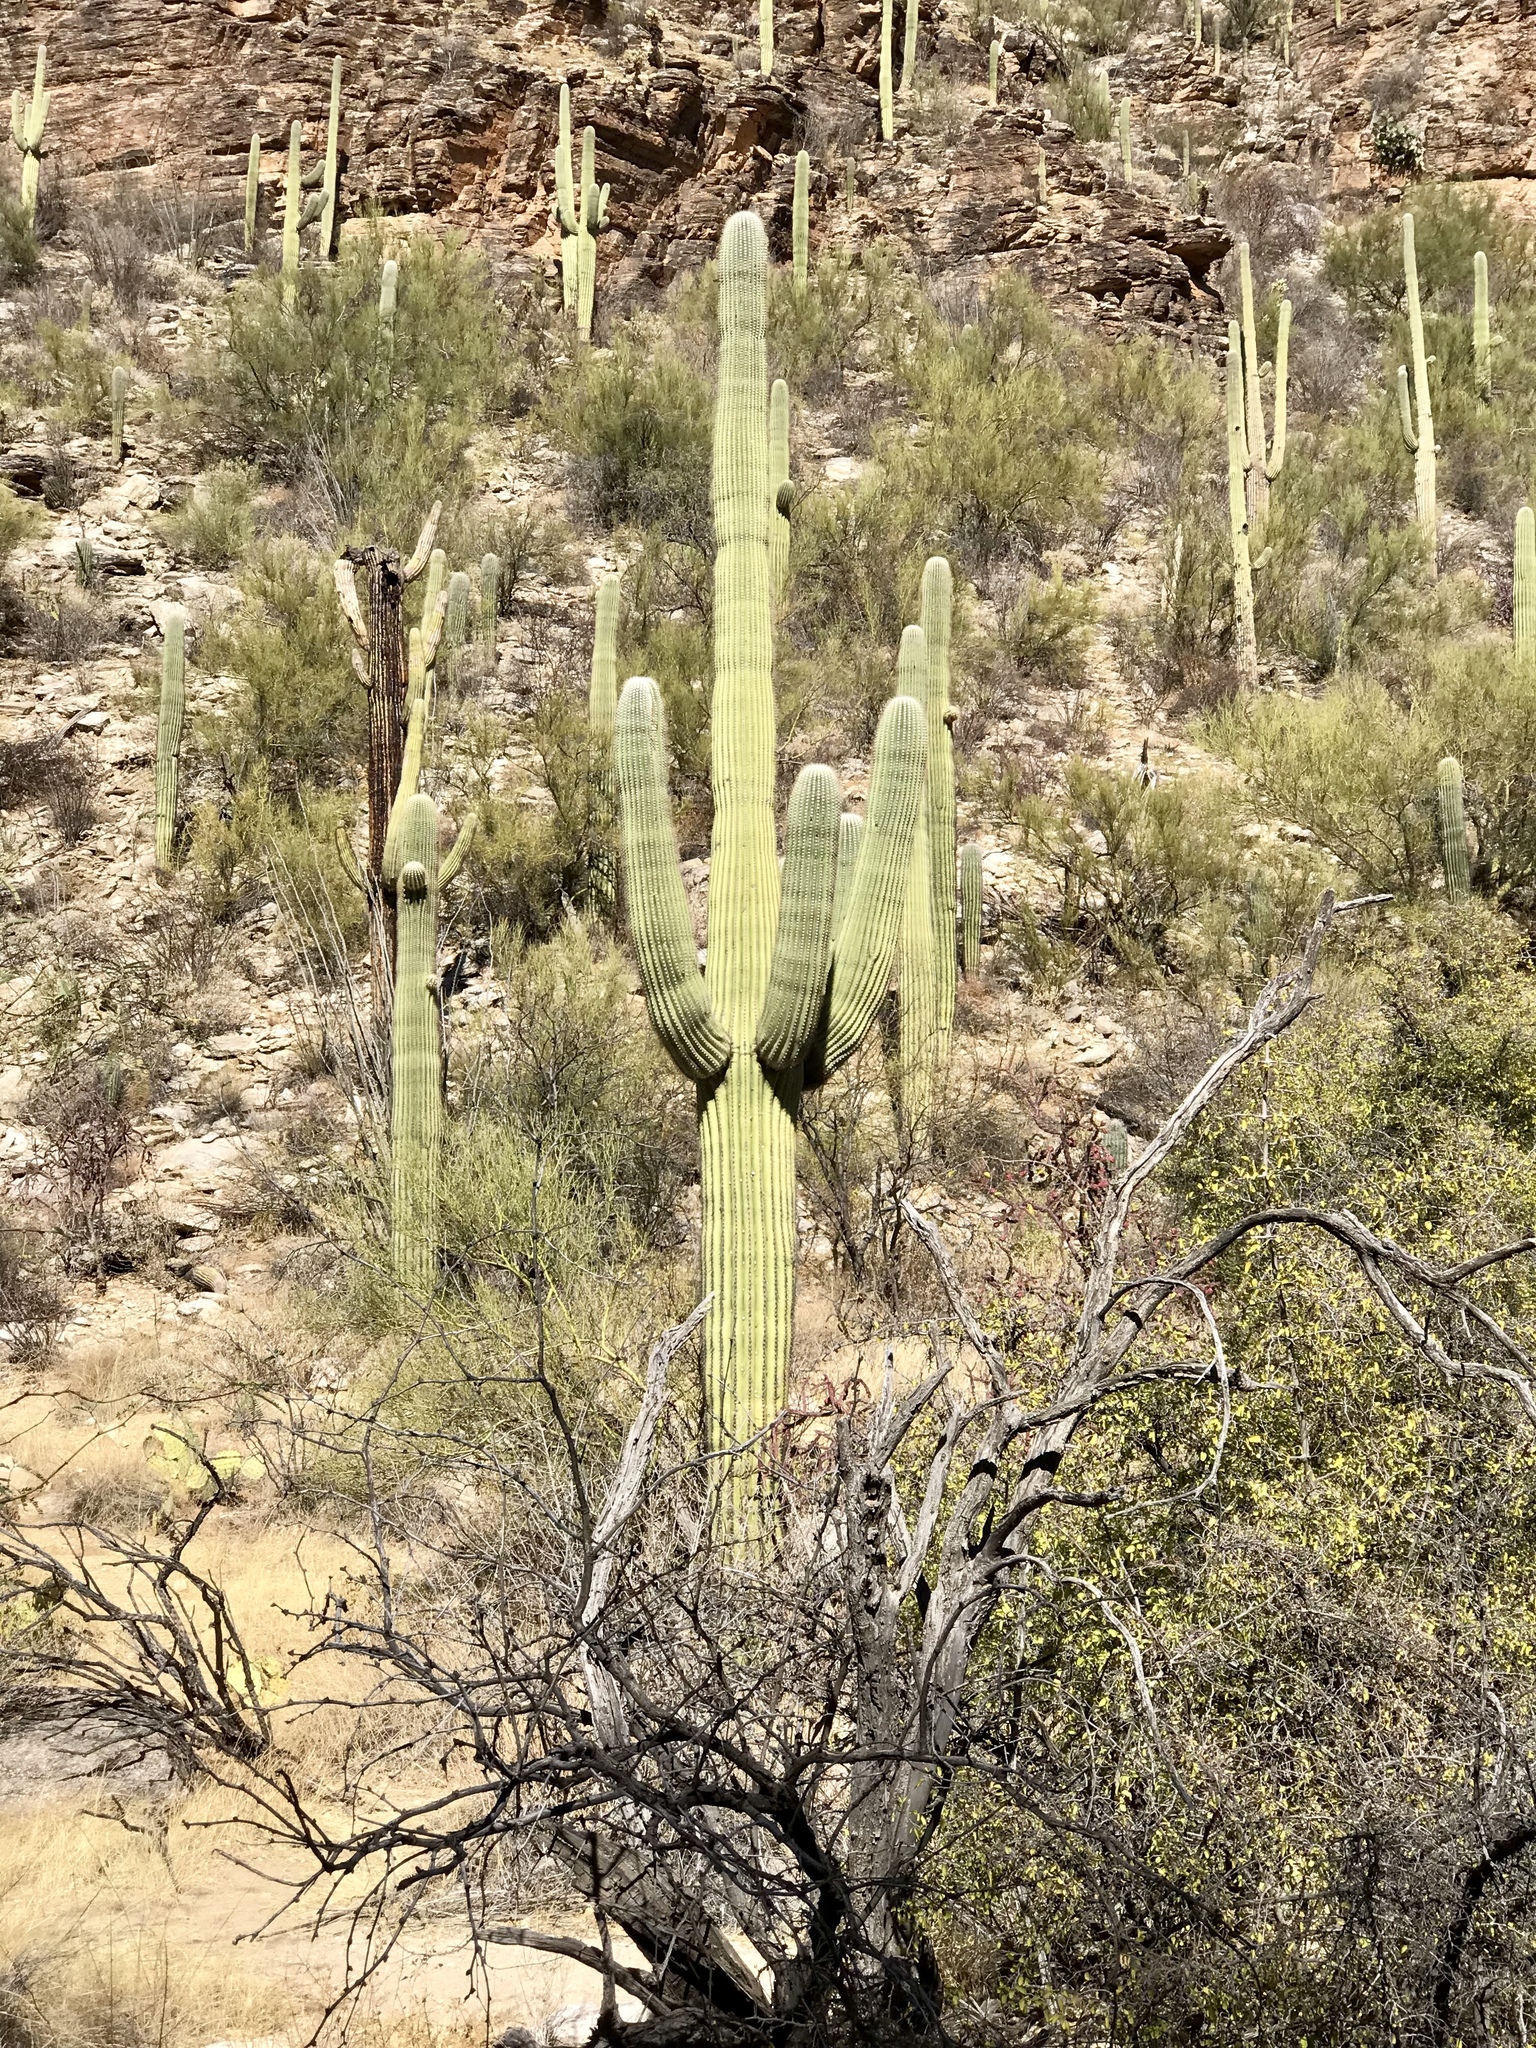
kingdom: Plantae
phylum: Tracheophyta
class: Magnoliopsida
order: Caryophyllales
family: Cactaceae
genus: Carnegiea
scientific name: Carnegiea gigantea
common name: Saguaro
